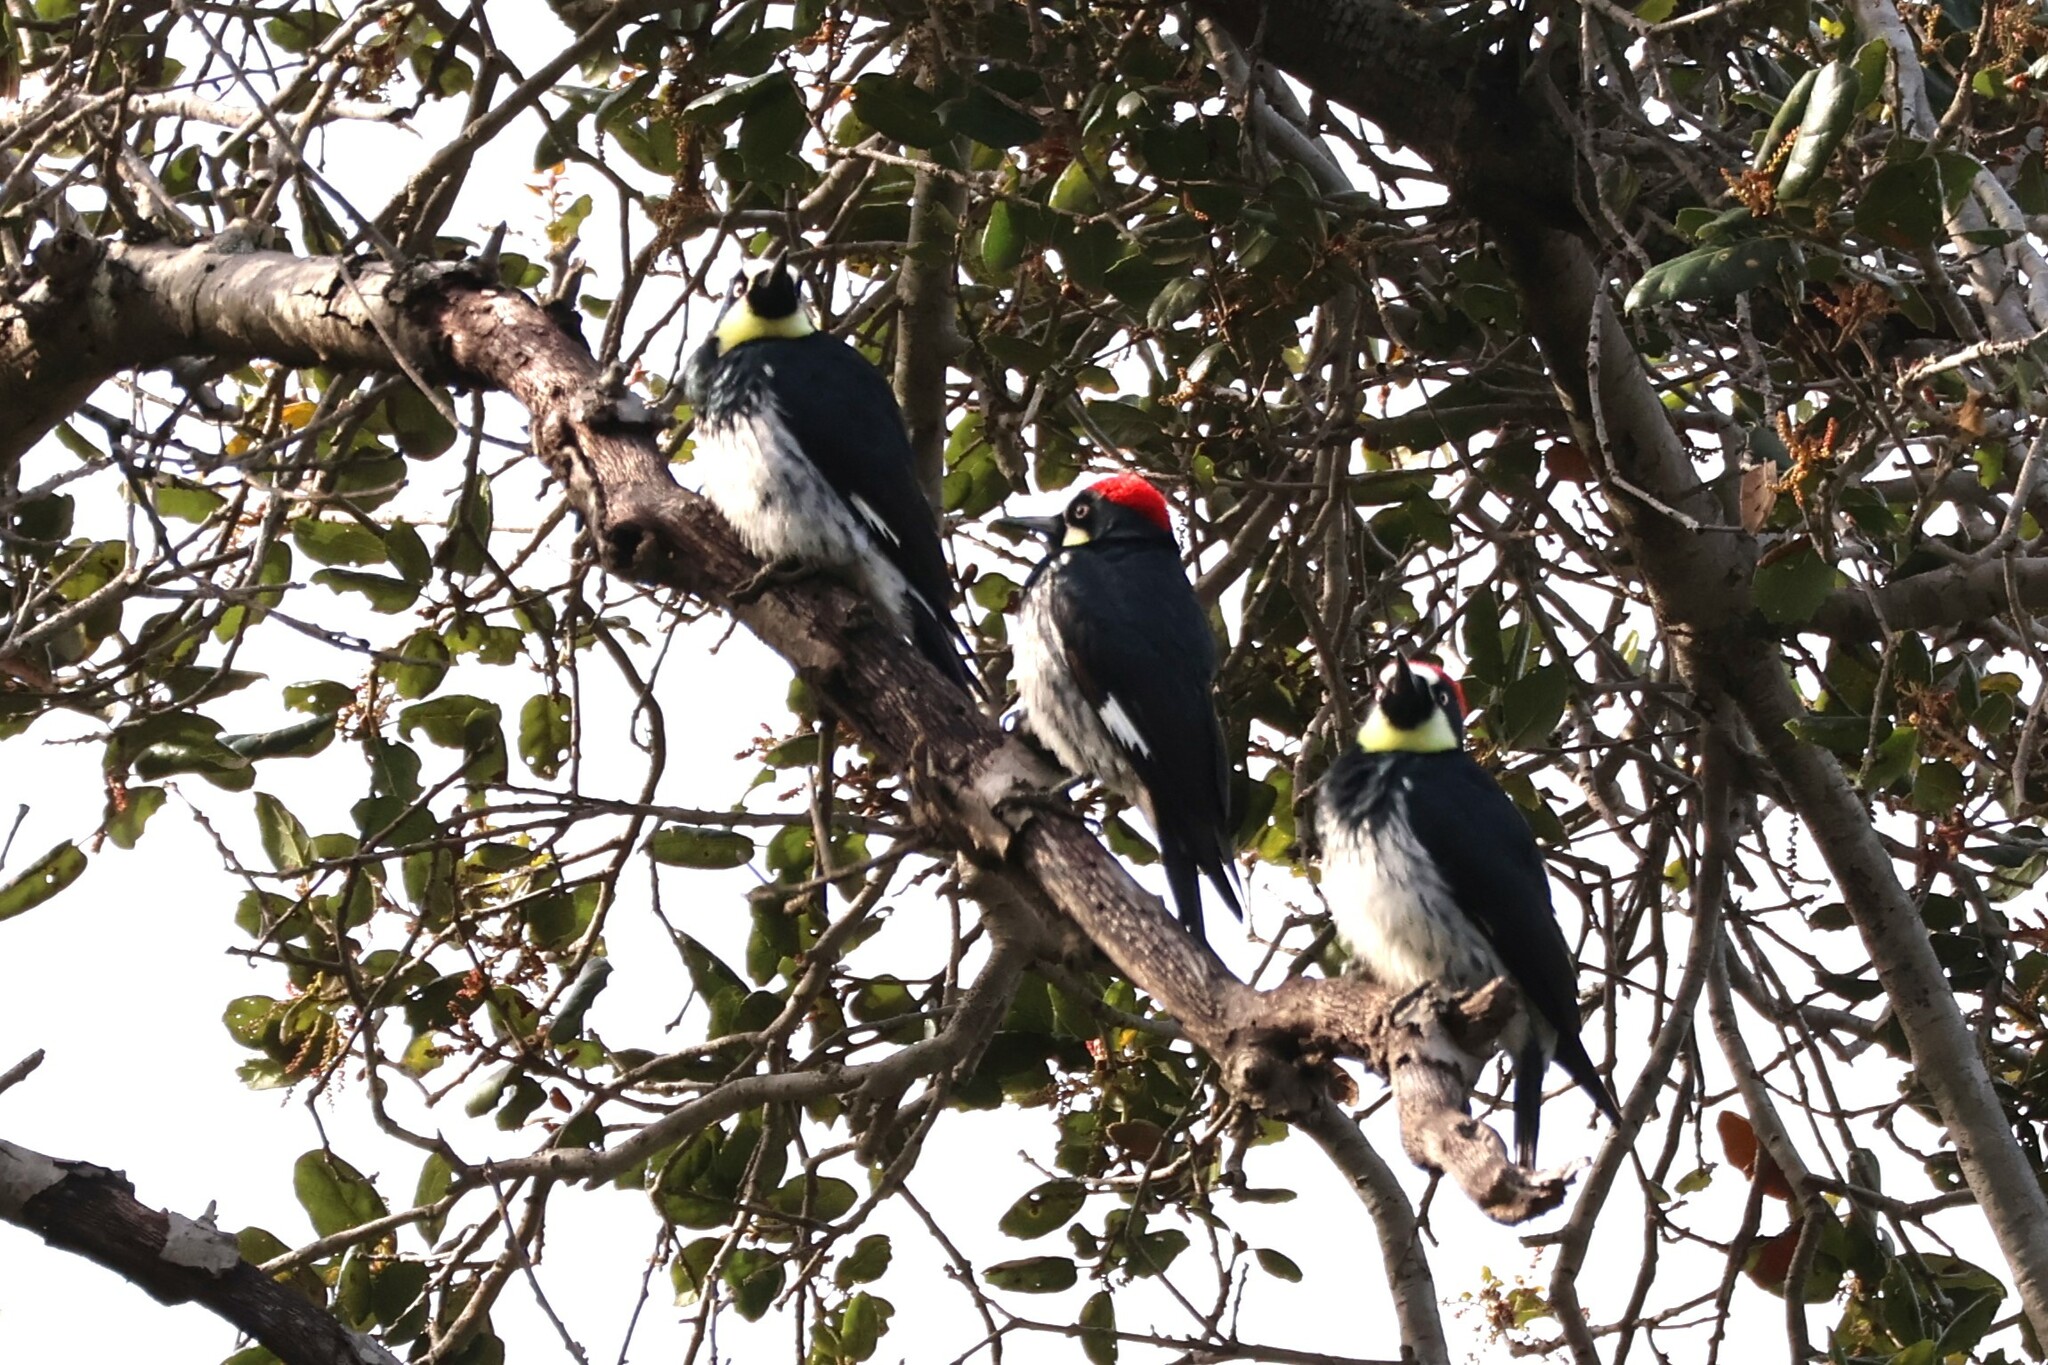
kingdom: Animalia
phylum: Chordata
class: Aves
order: Piciformes
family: Picidae
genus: Melanerpes
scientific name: Melanerpes formicivorus
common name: Acorn woodpecker
